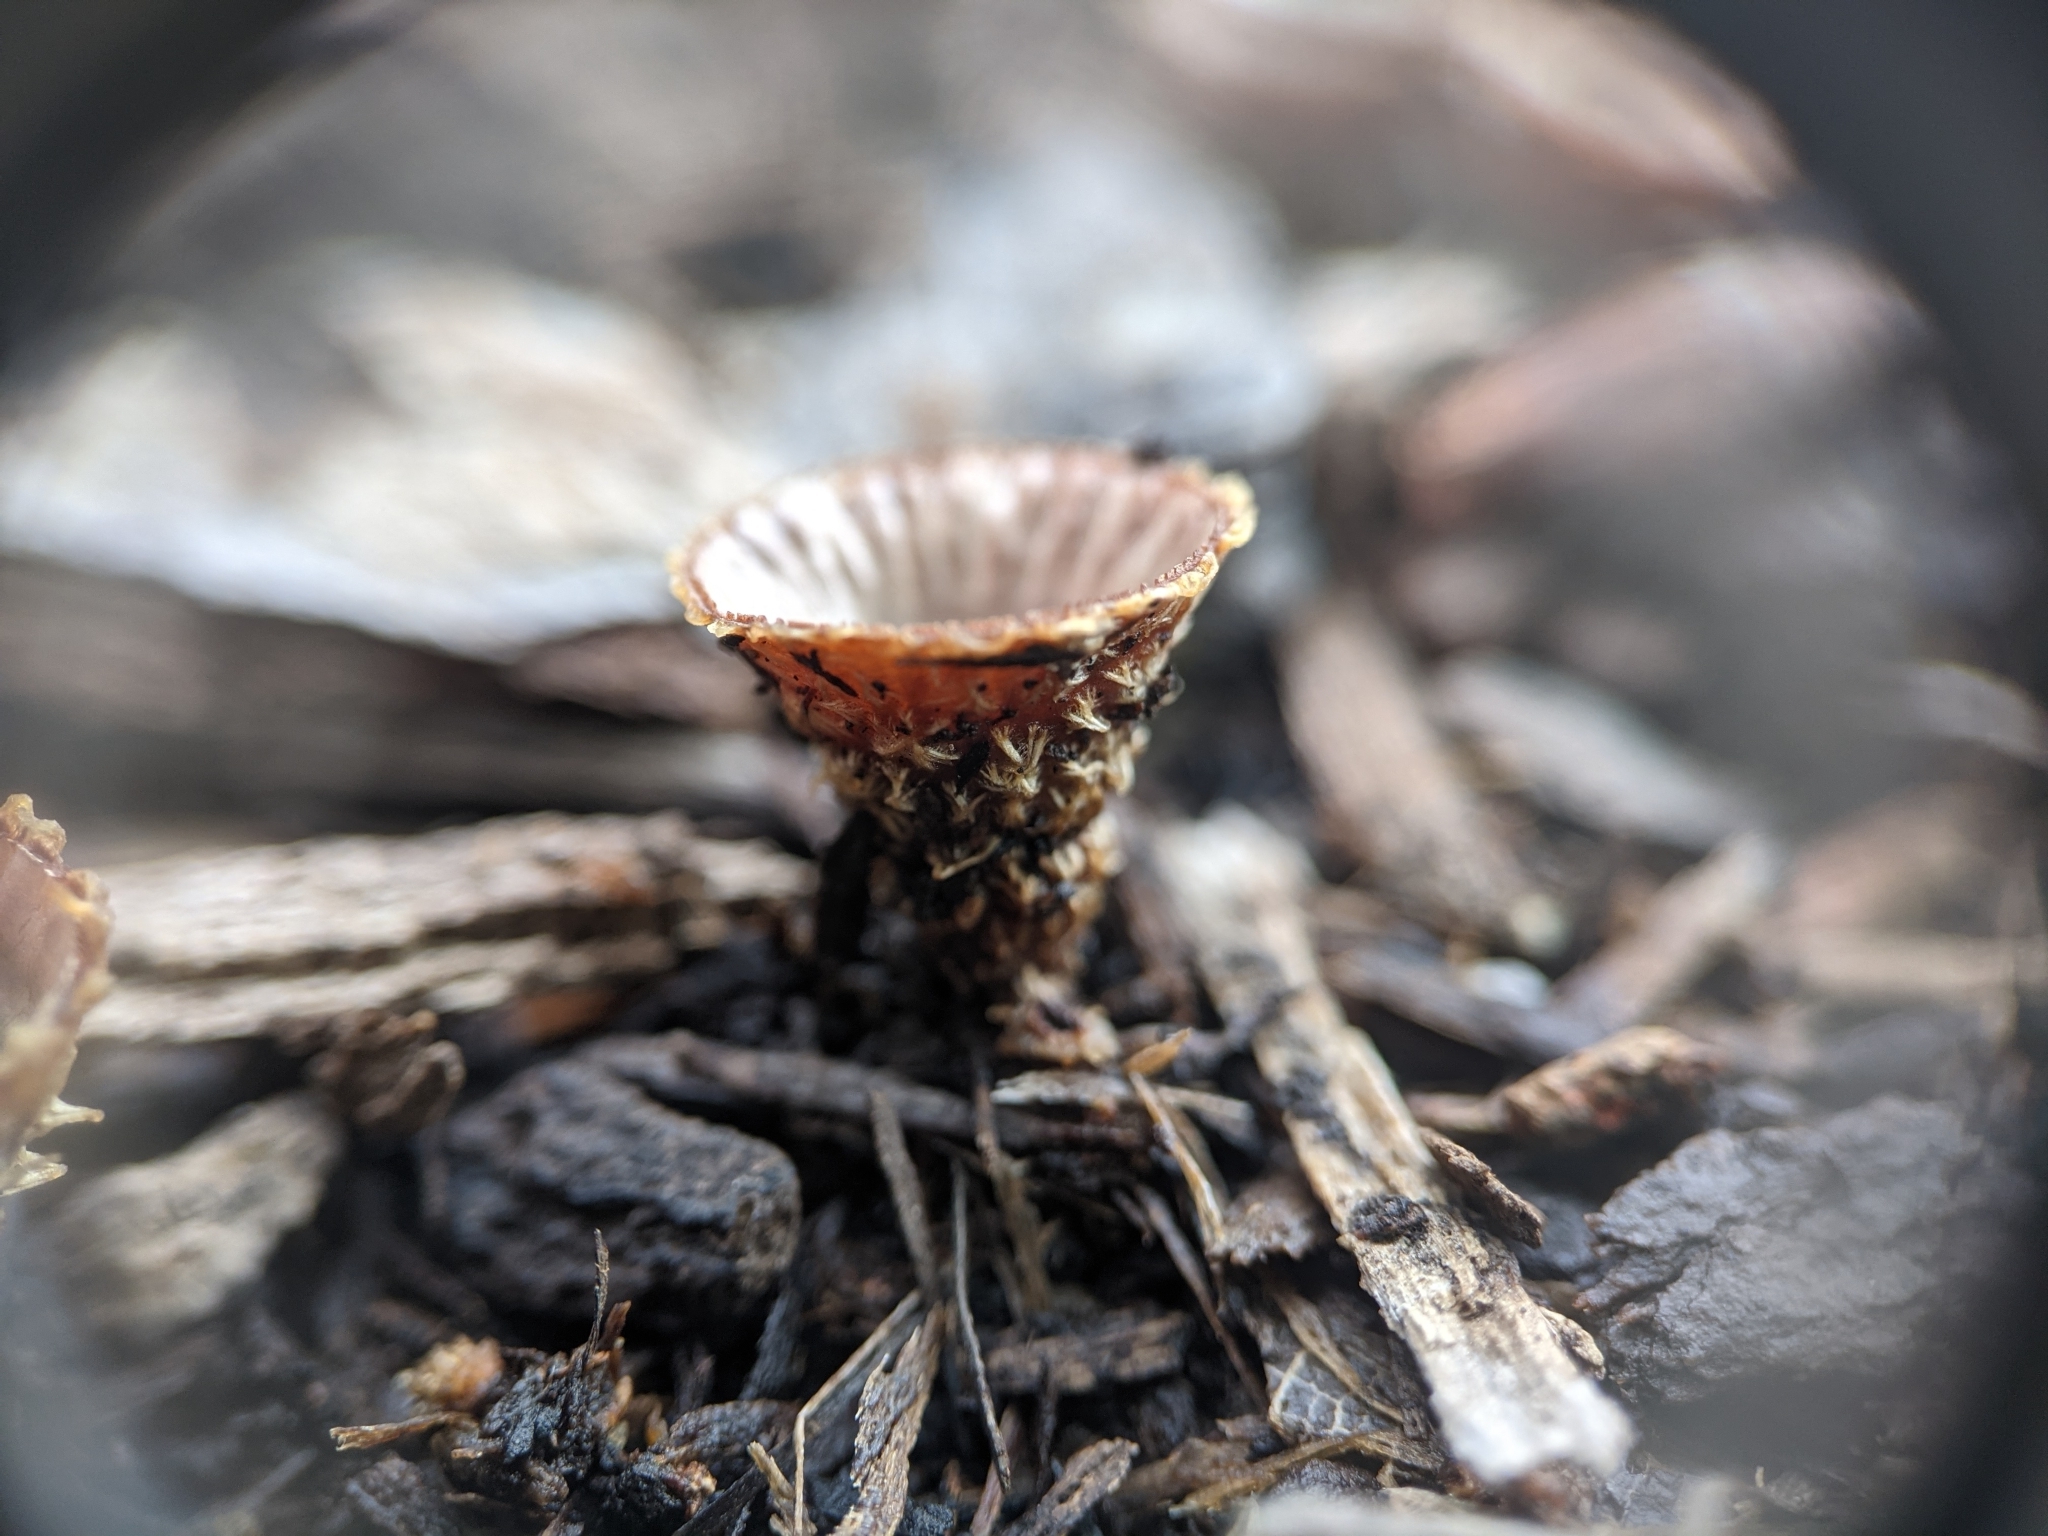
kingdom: Fungi
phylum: Basidiomycota
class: Agaricomycetes
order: Agaricales
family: Agaricaceae
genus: Cyathus
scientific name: Cyathus striatus
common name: Fluted bird's nest
